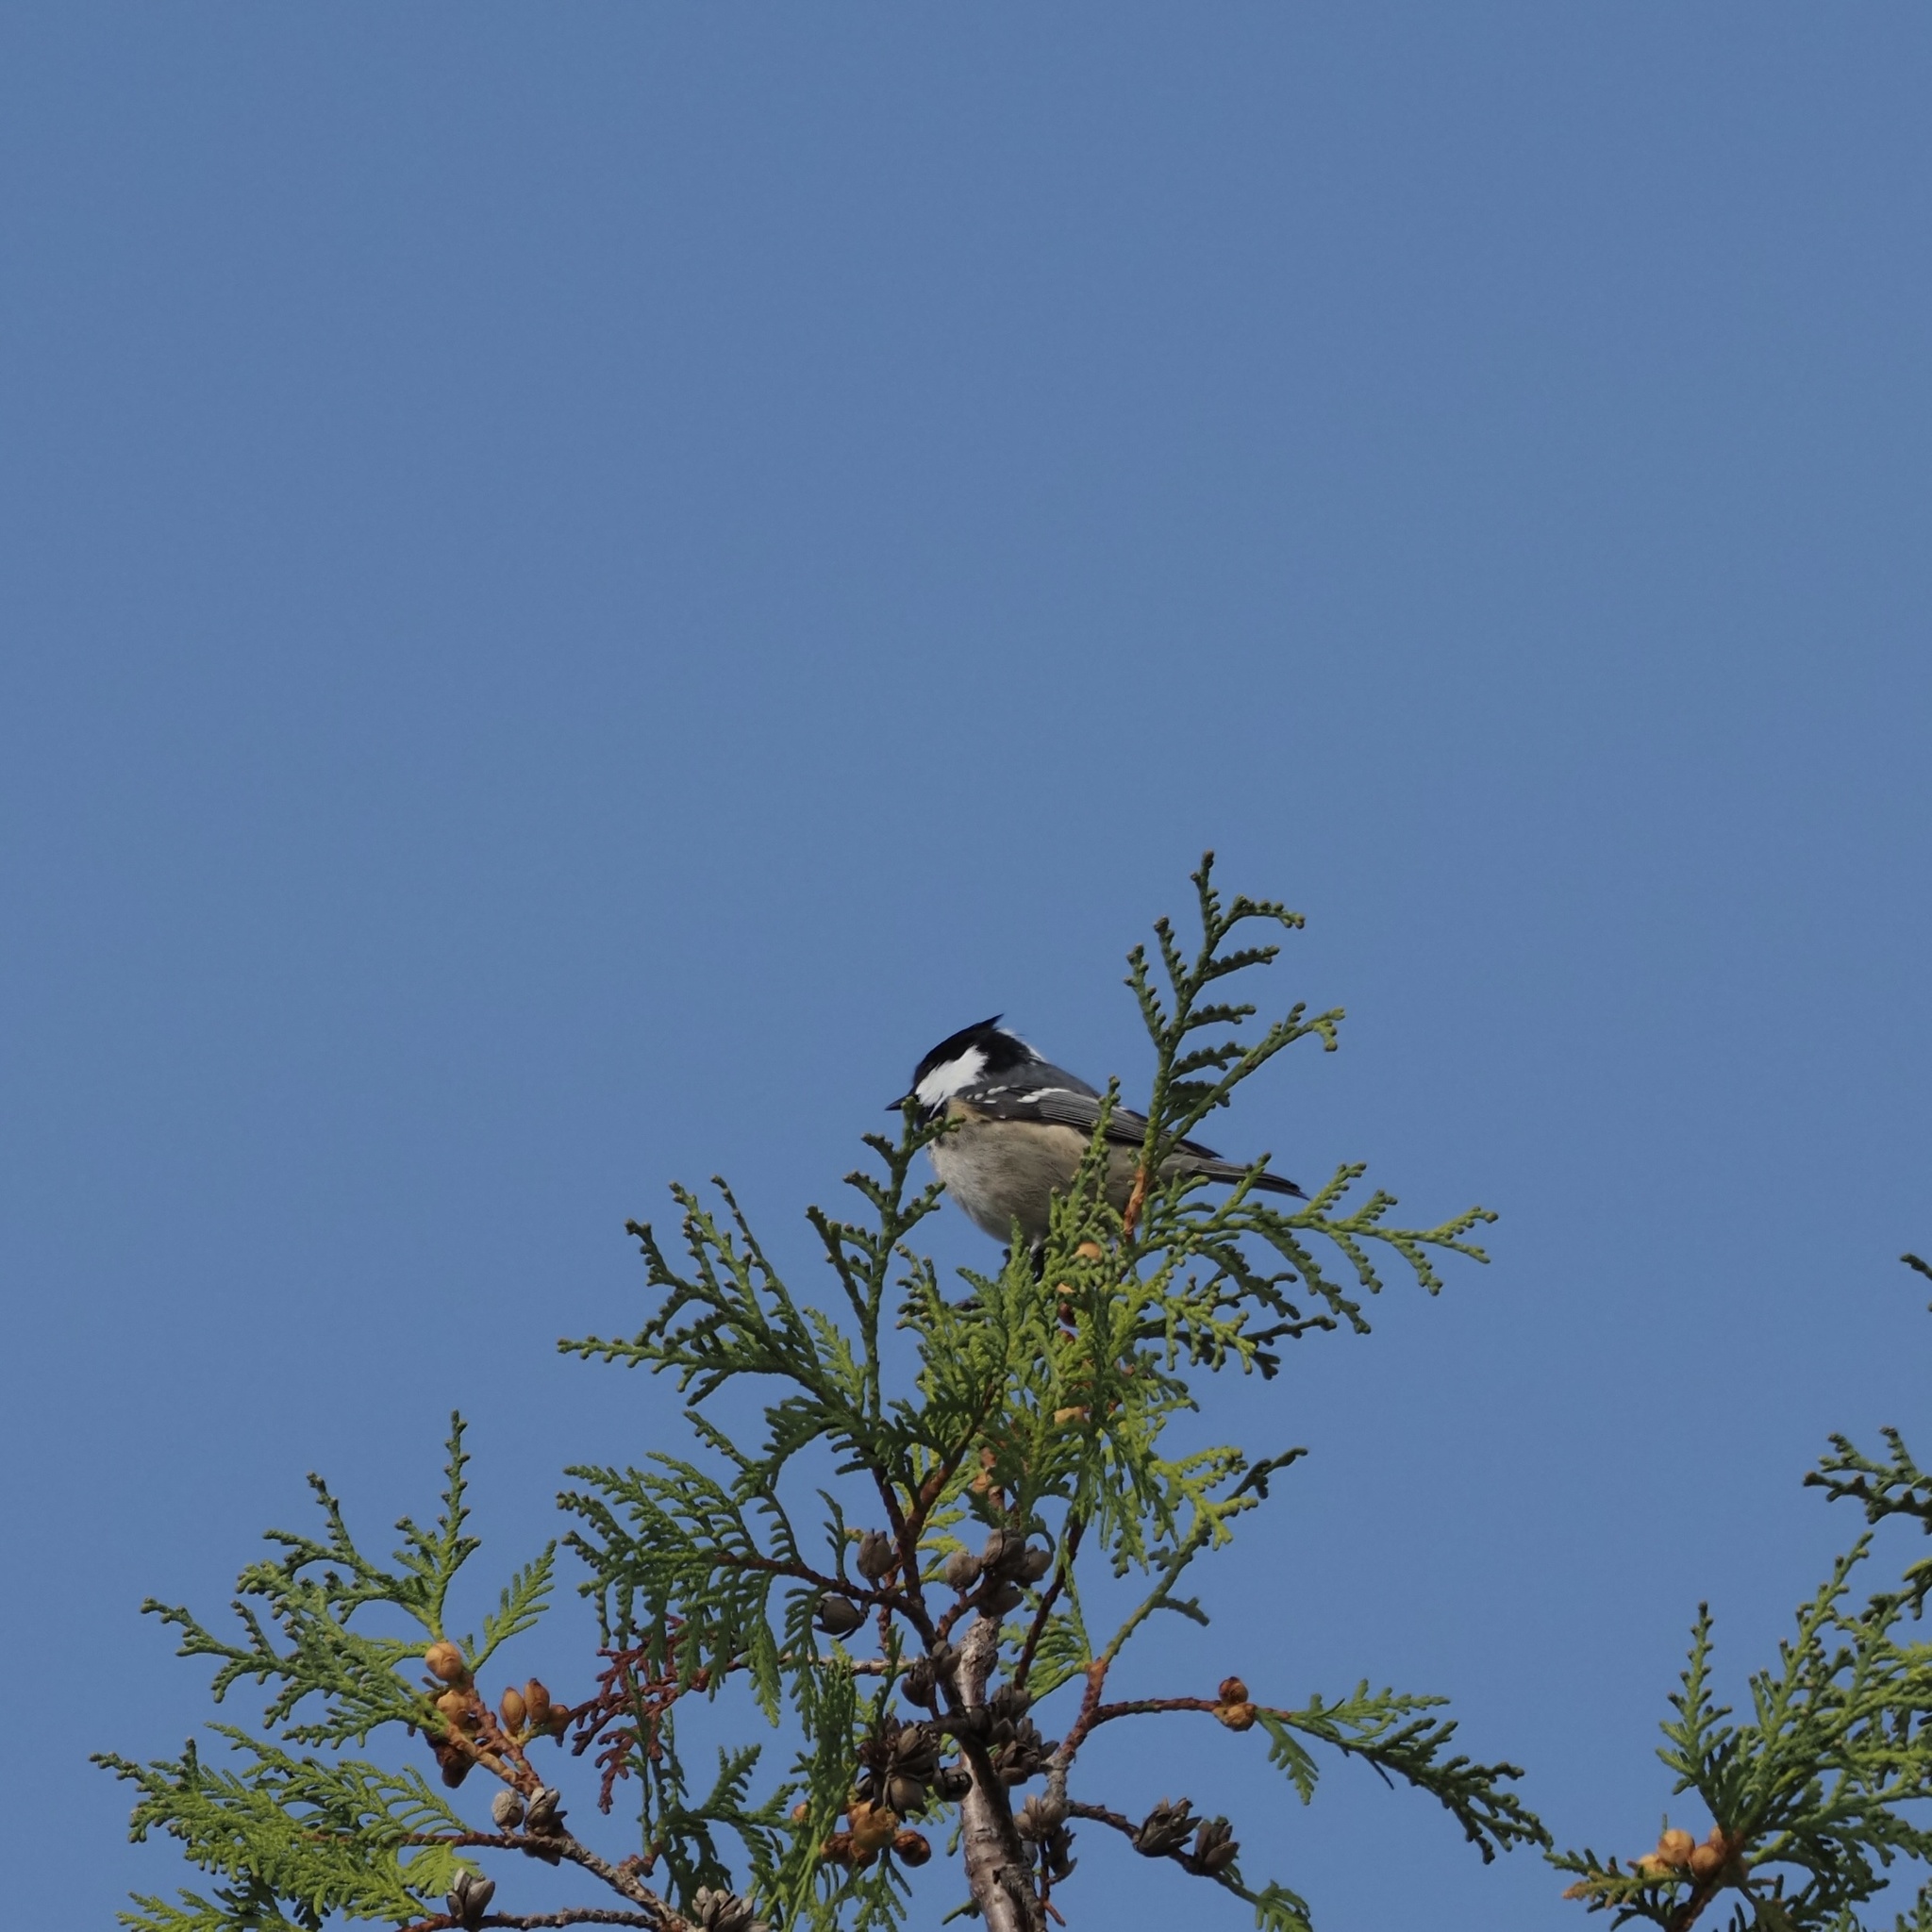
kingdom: Animalia
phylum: Chordata
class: Aves
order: Passeriformes
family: Paridae
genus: Periparus
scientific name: Periparus ater
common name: Coal tit
